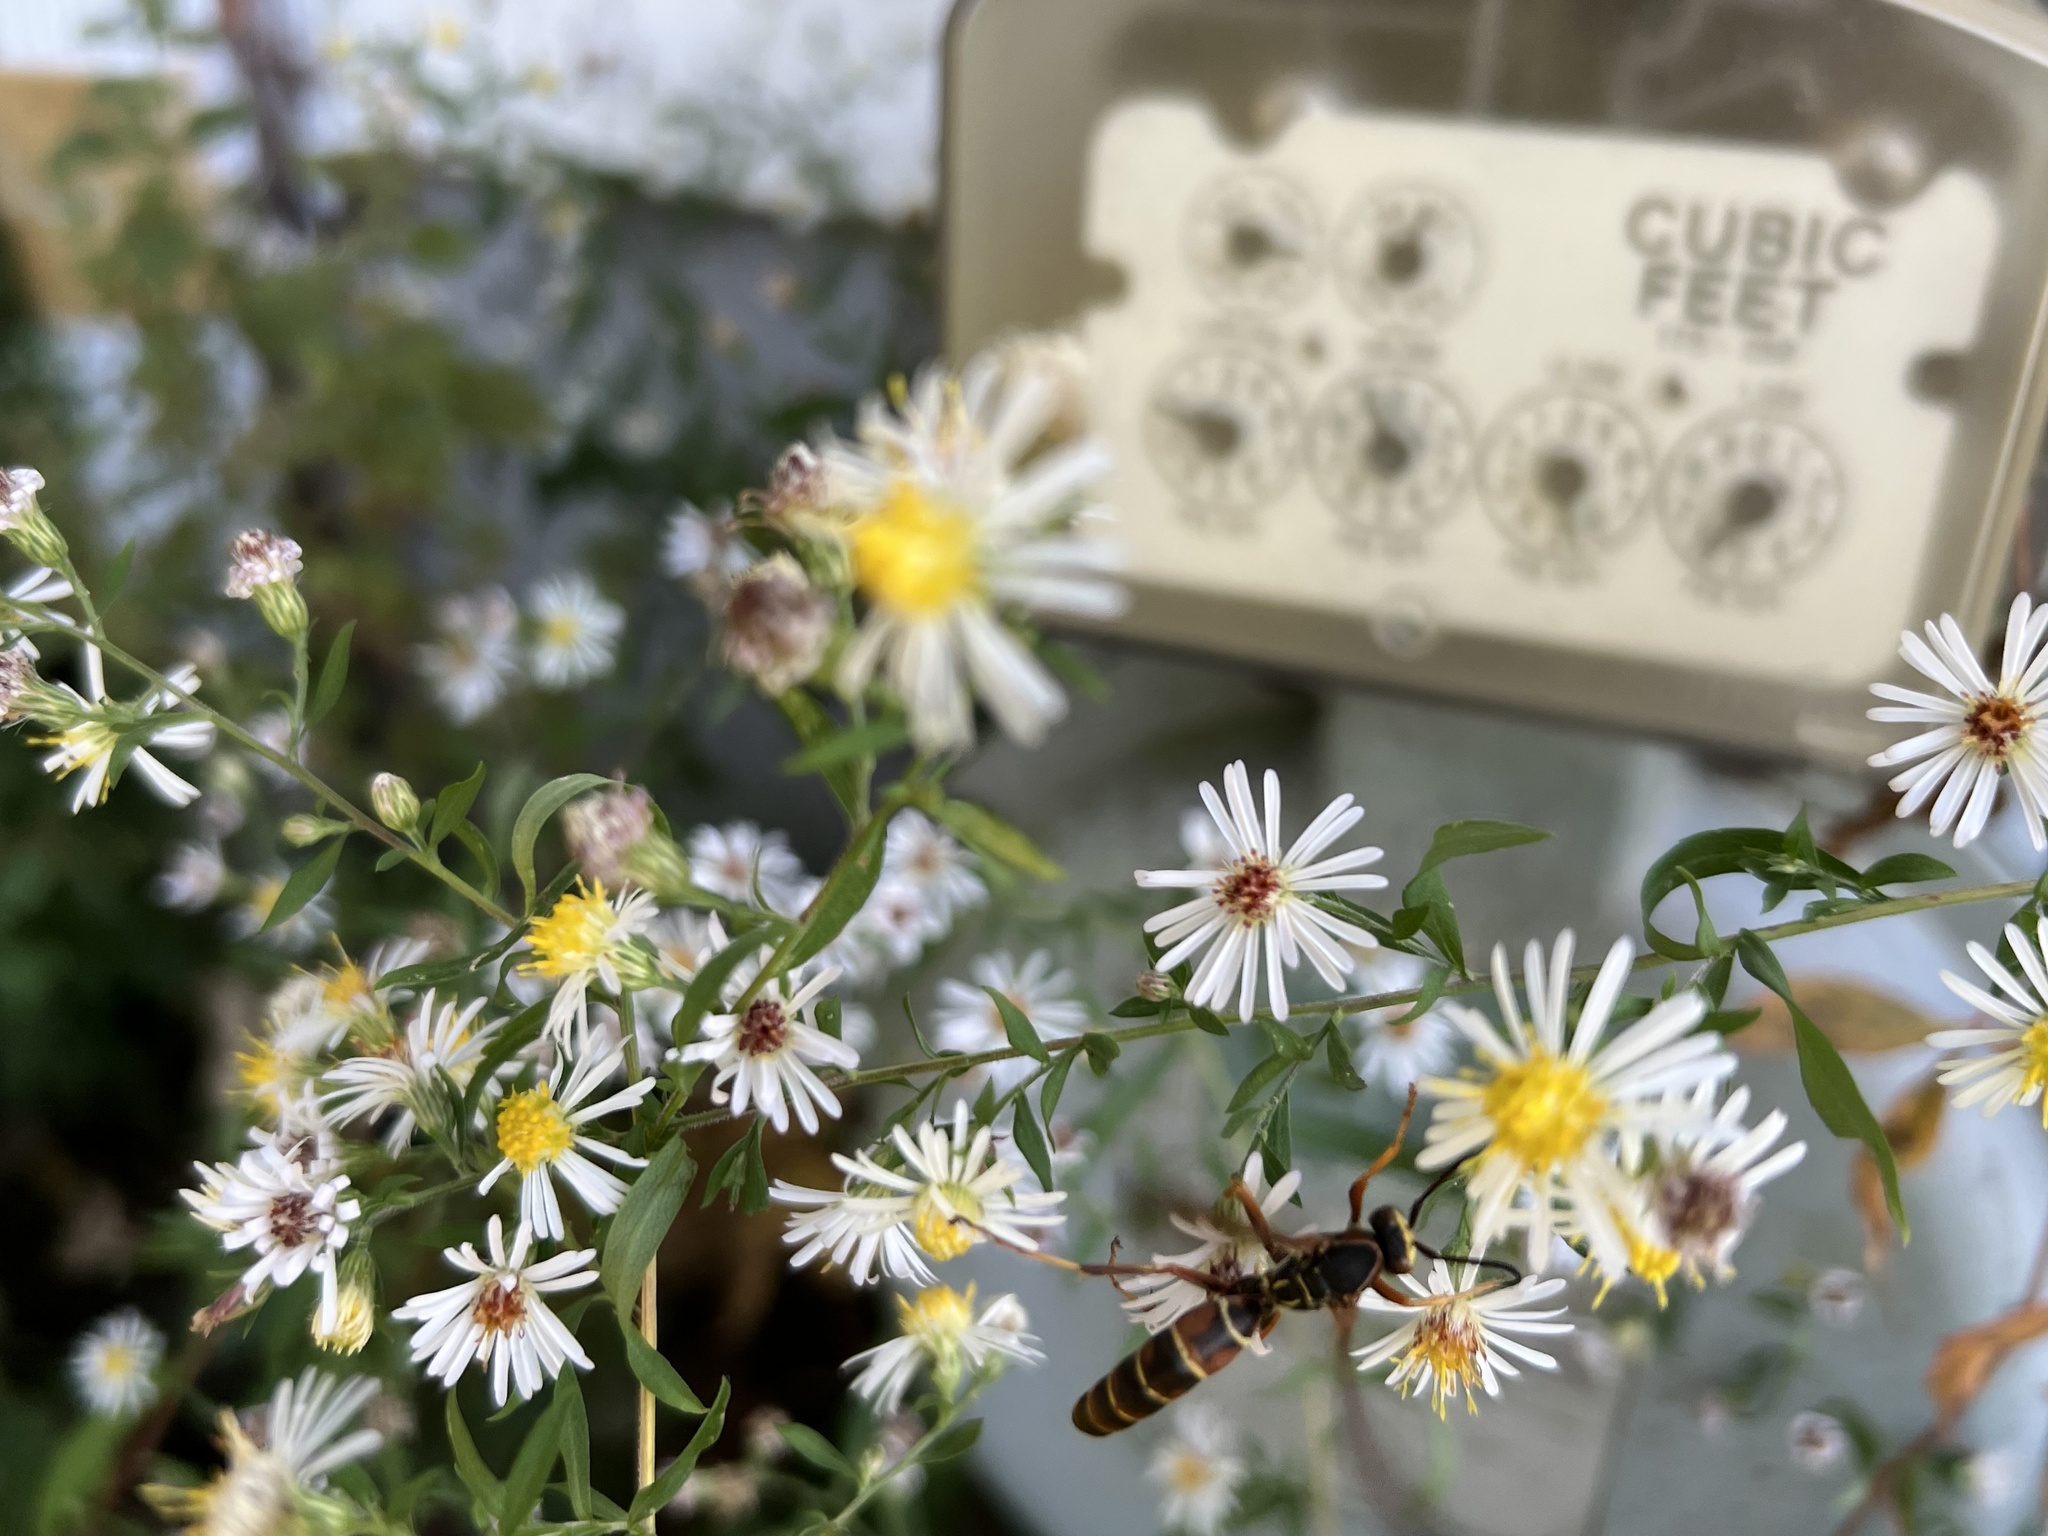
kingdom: Animalia
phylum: Arthropoda
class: Insecta
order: Hymenoptera
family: Eumenidae
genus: Polistes
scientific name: Polistes fuscatus
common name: Dark paper wasp
